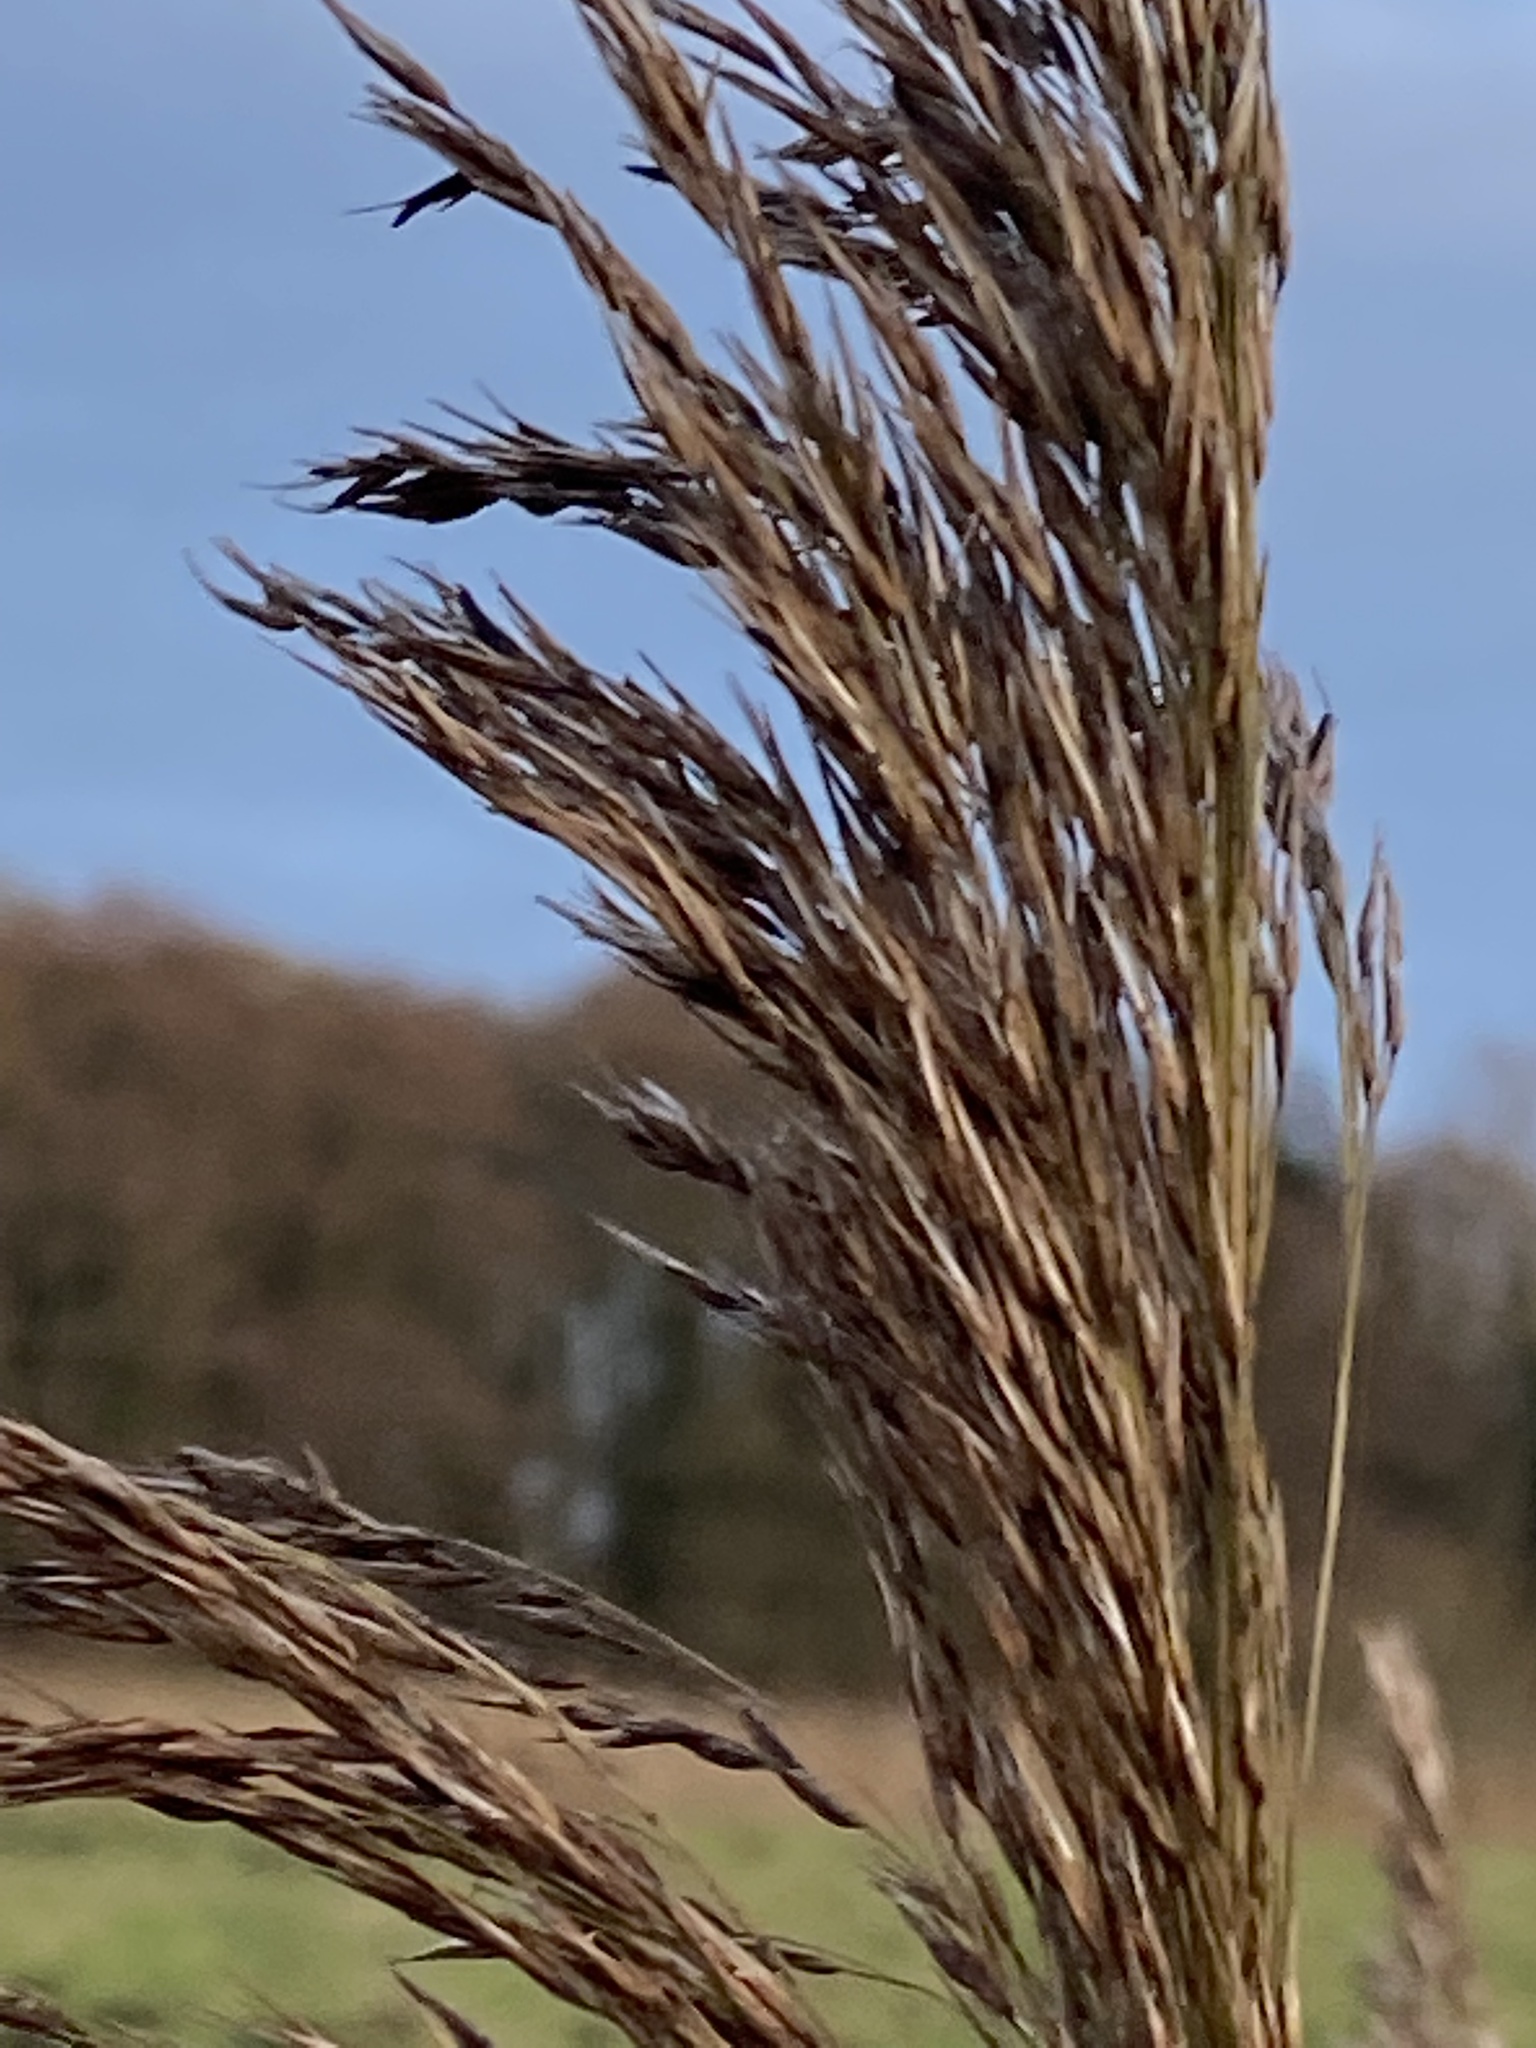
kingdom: Plantae
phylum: Tracheophyta
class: Liliopsida
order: Poales
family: Poaceae
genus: Phragmites
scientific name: Phragmites australis
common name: Common reed
